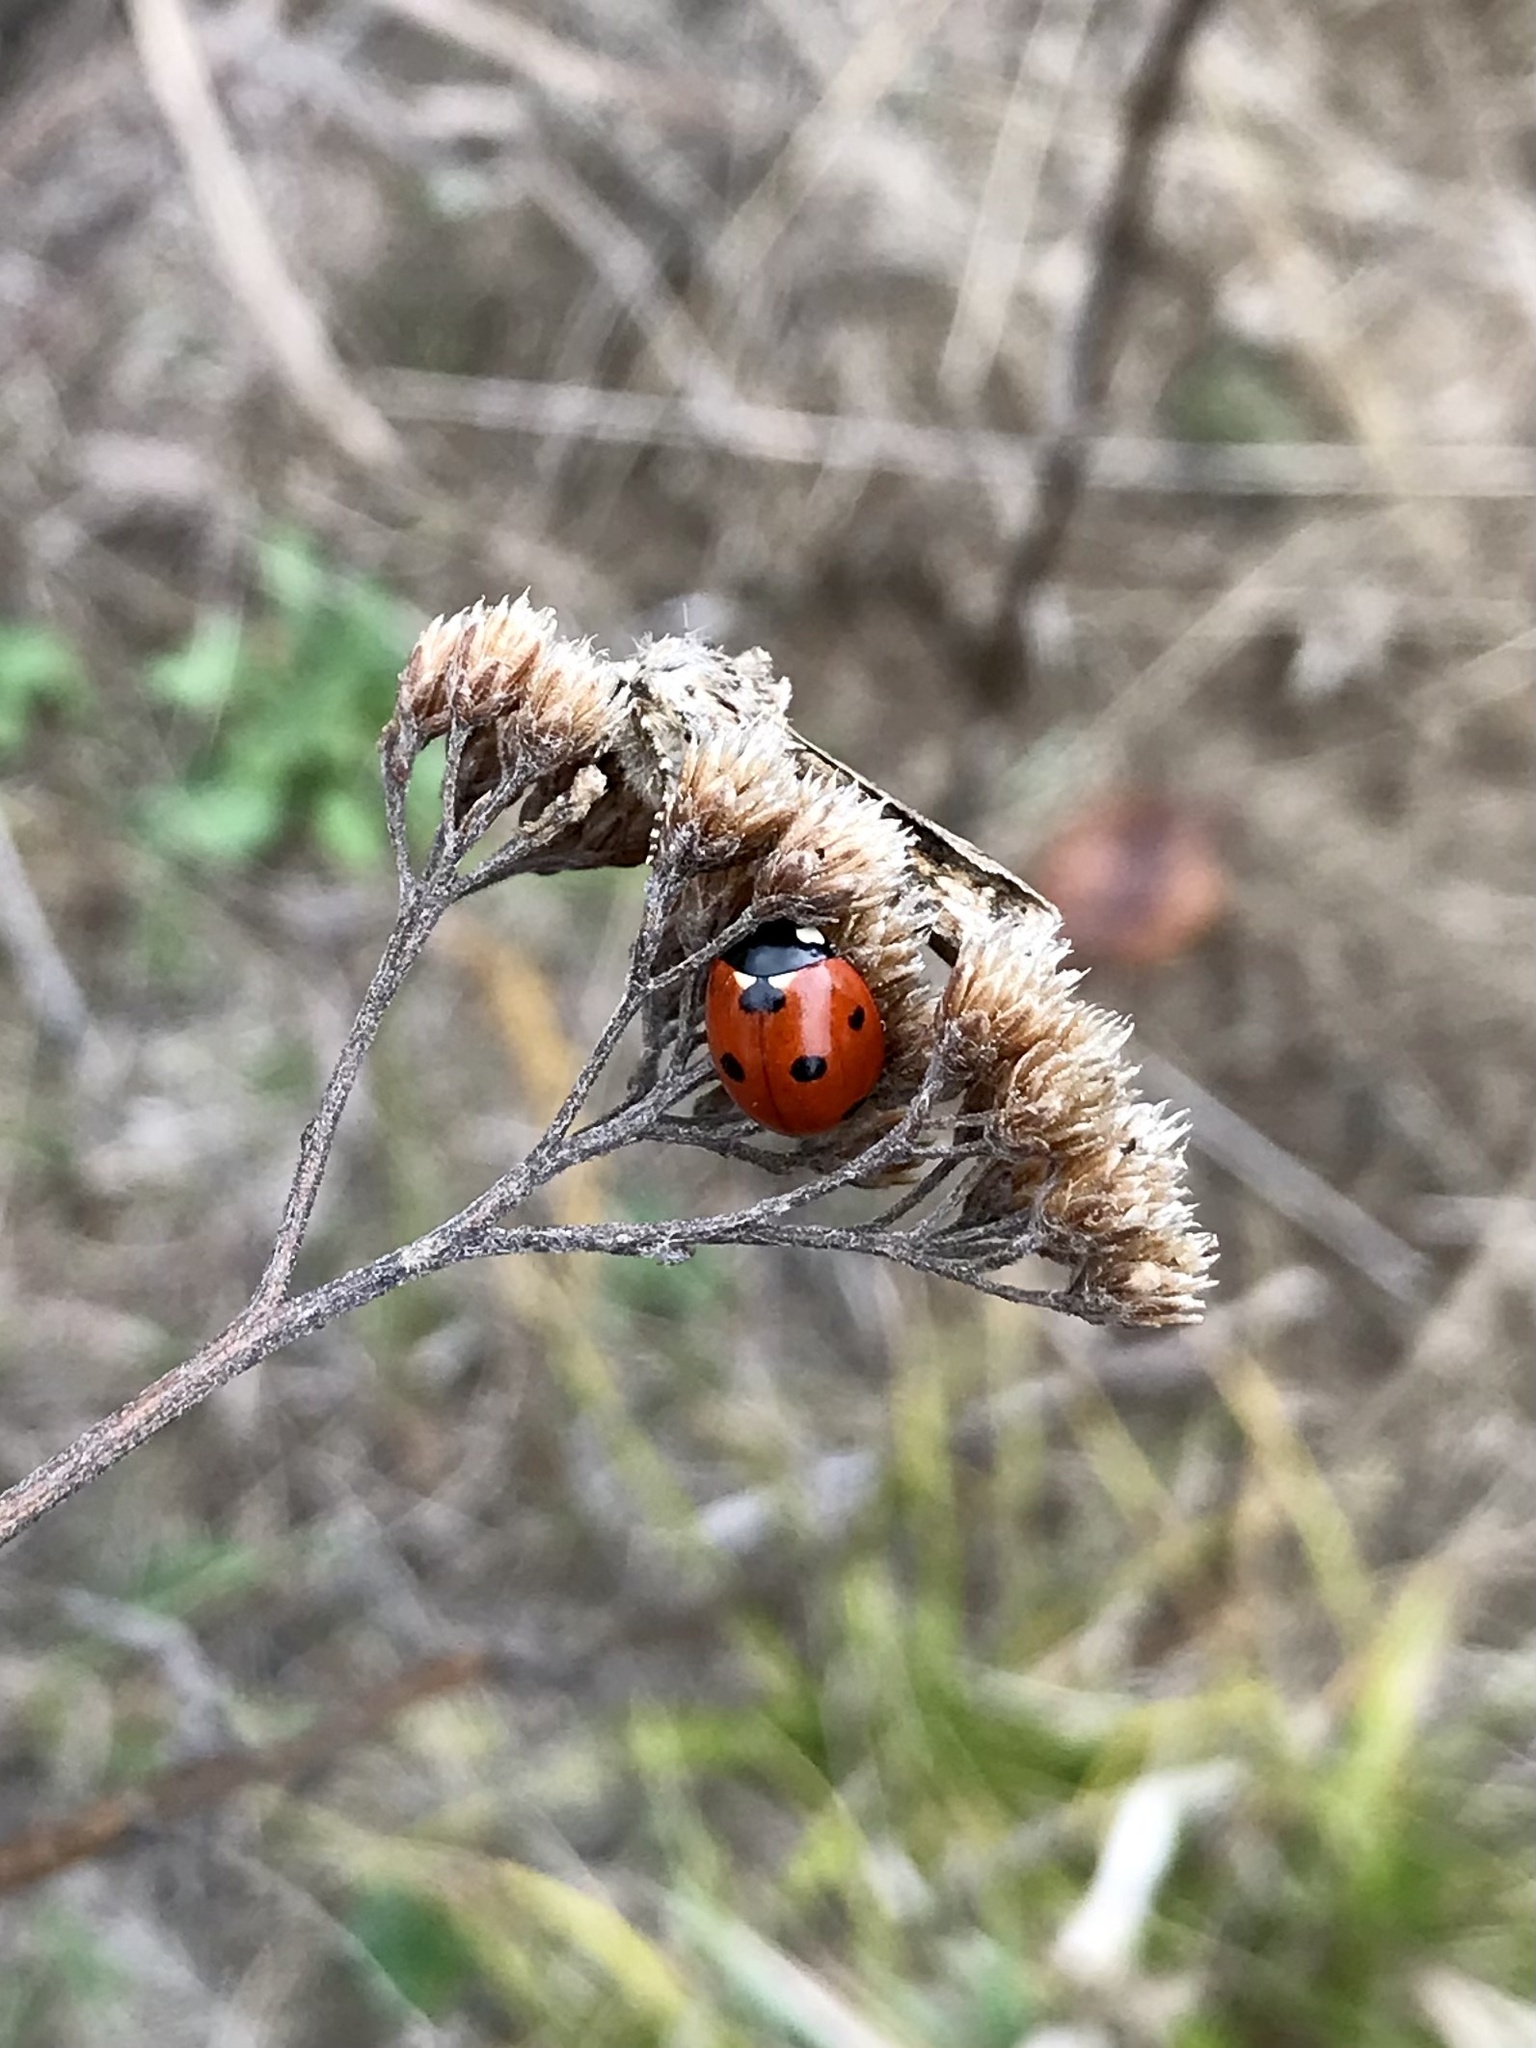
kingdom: Animalia
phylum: Arthropoda
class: Insecta
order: Coleoptera
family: Coccinellidae
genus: Coccinella
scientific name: Coccinella septempunctata
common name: Sevenspotted lady beetle
